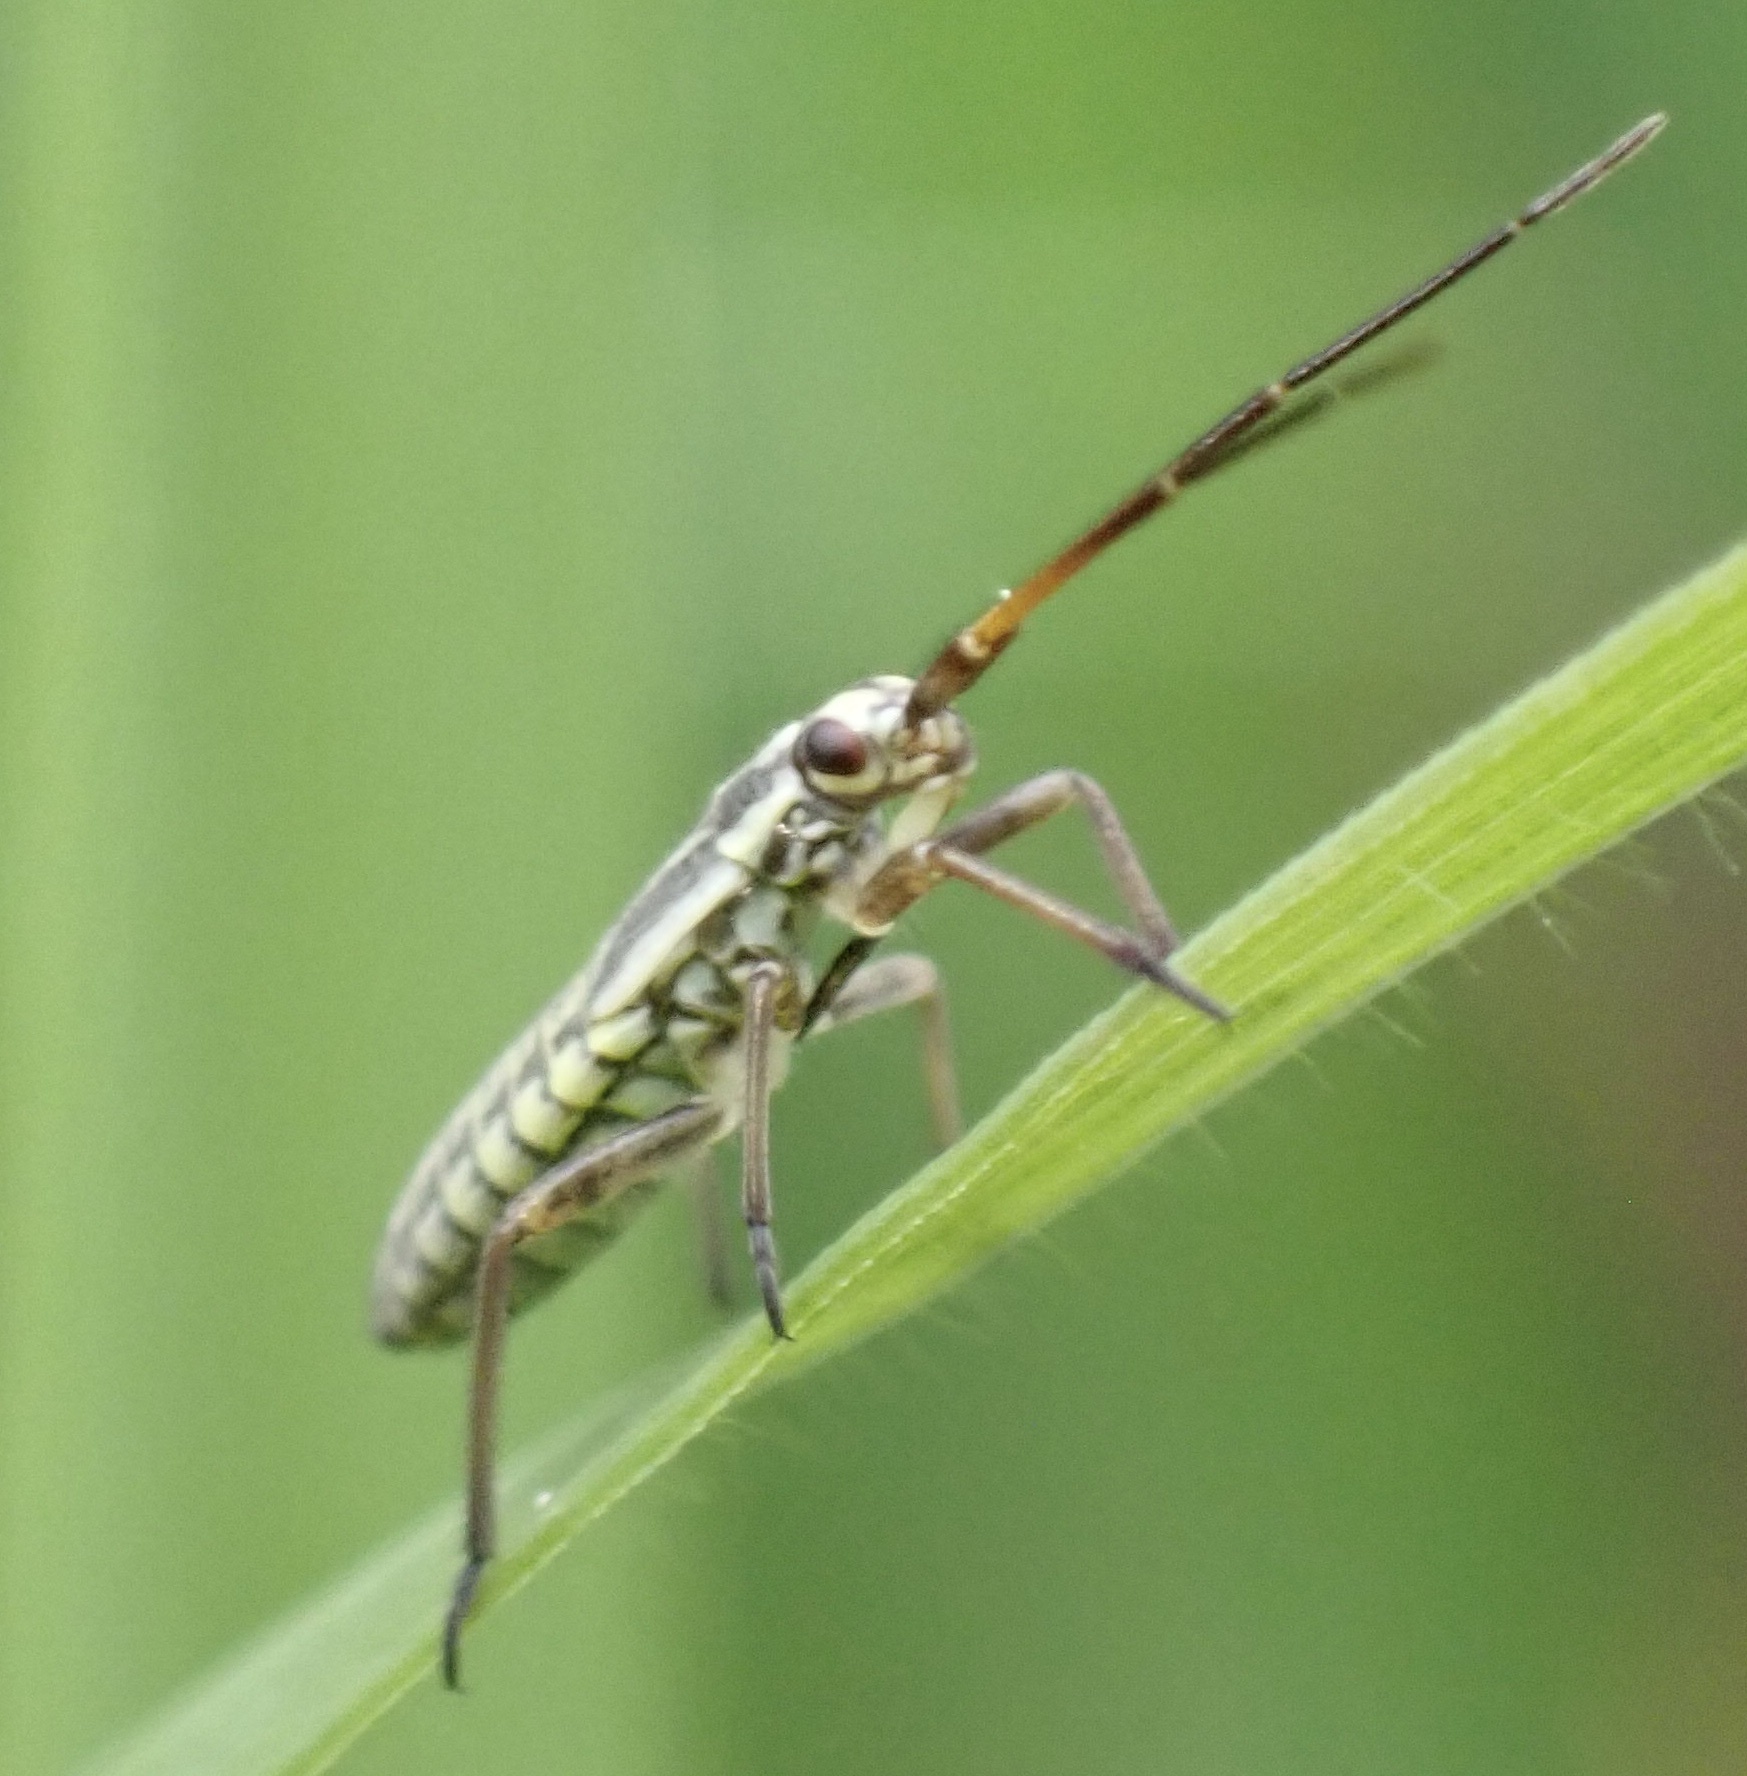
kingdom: Animalia
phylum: Arthropoda
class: Insecta
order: Hemiptera
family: Miridae
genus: Leptopterna
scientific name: Leptopterna dolabrata
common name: Meadow plant bug
